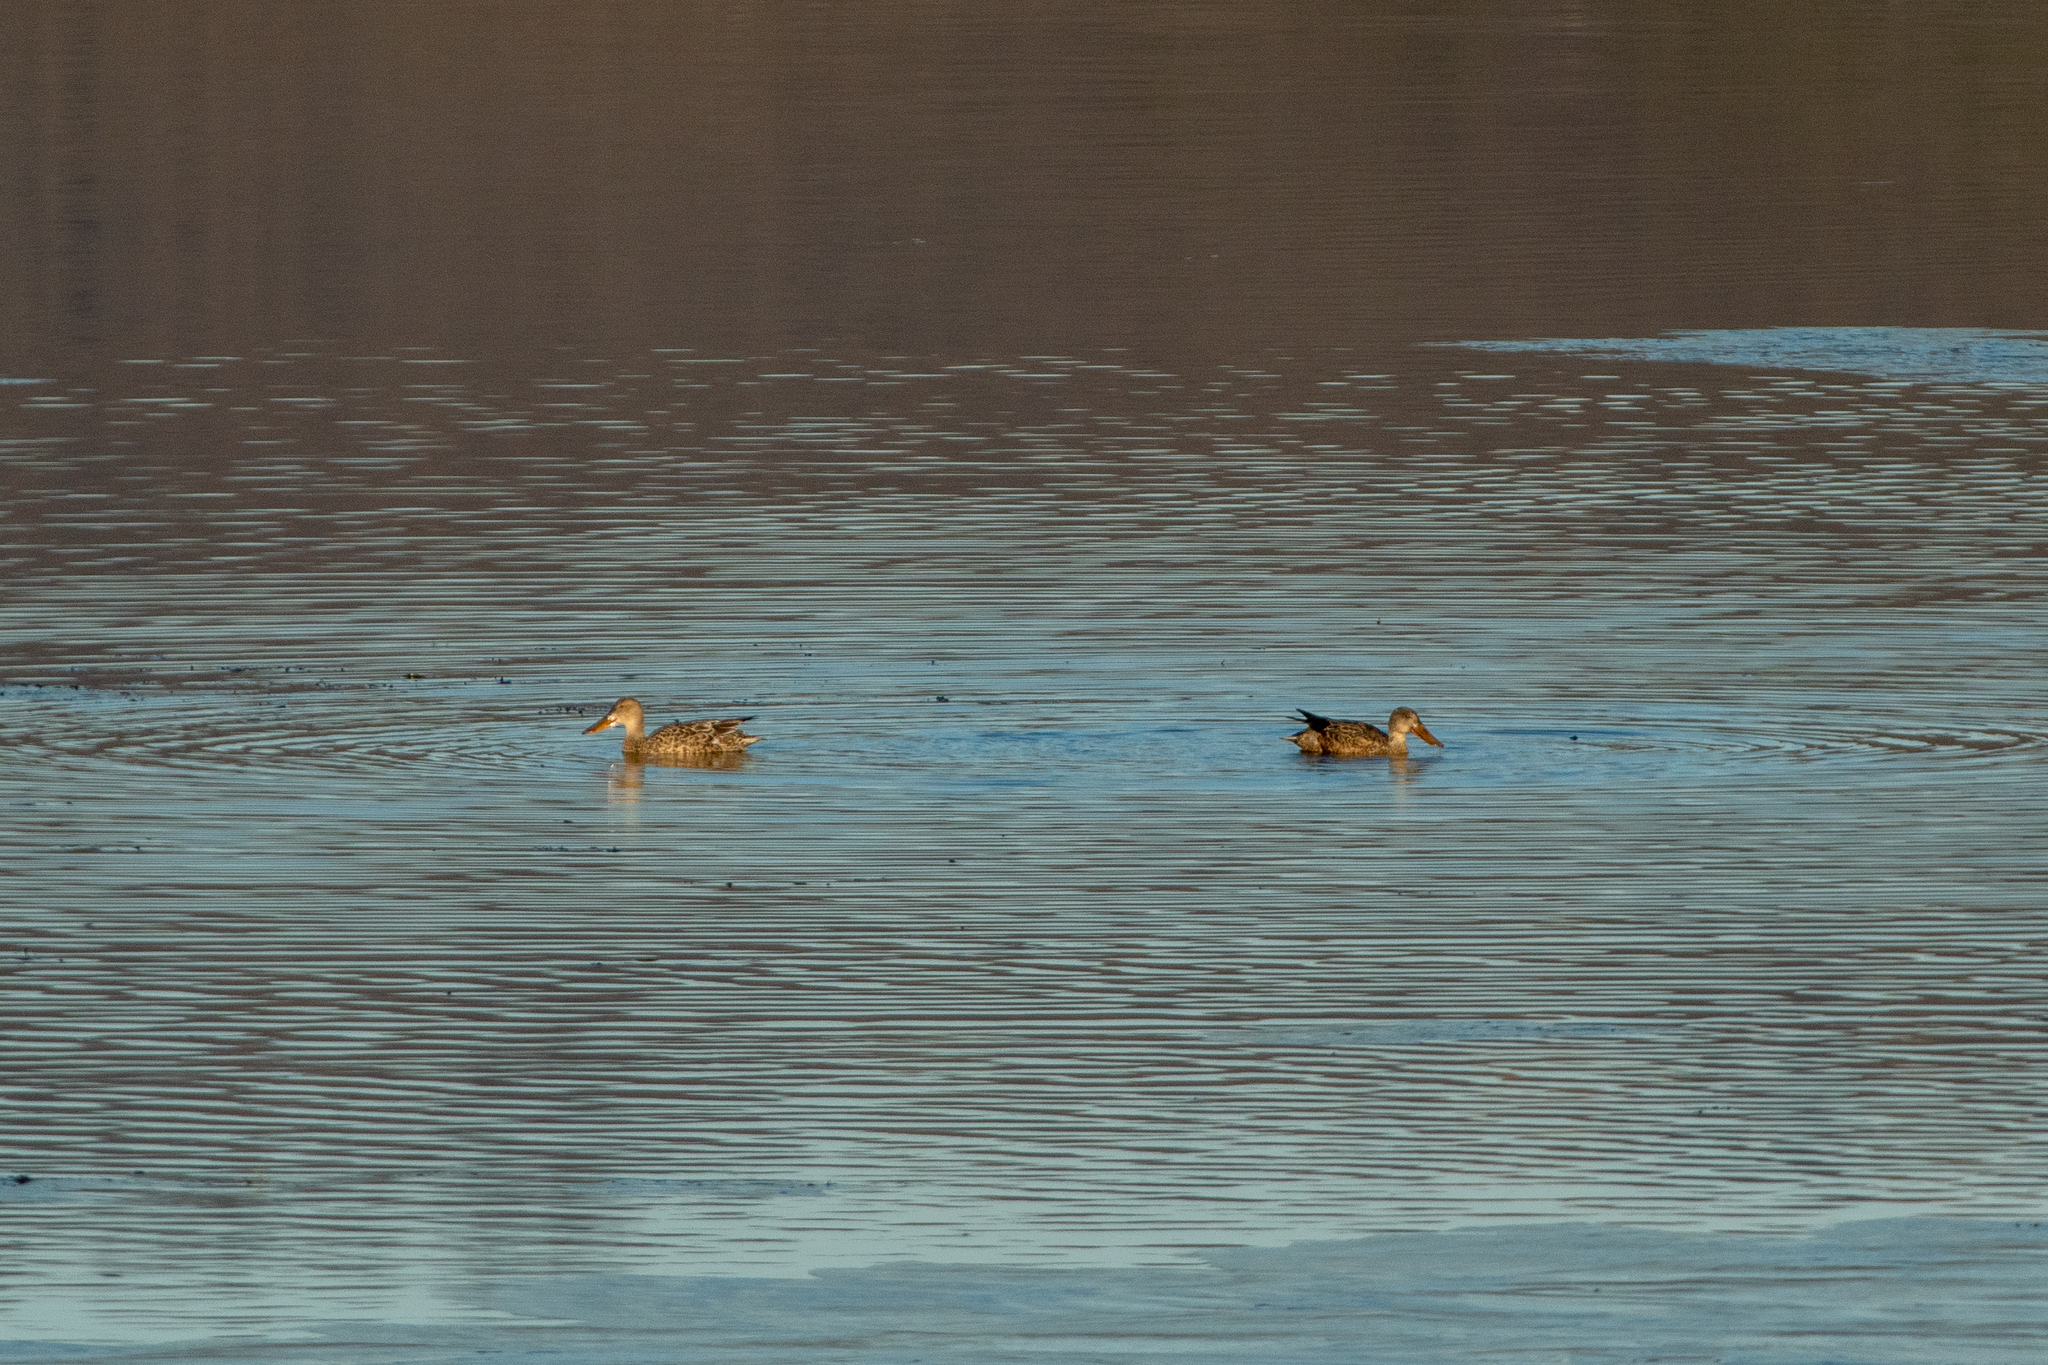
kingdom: Animalia
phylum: Chordata
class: Aves
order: Anseriformes
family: Anatidae
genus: Spatula
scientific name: Spatula clypeata
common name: Northern shoveler
